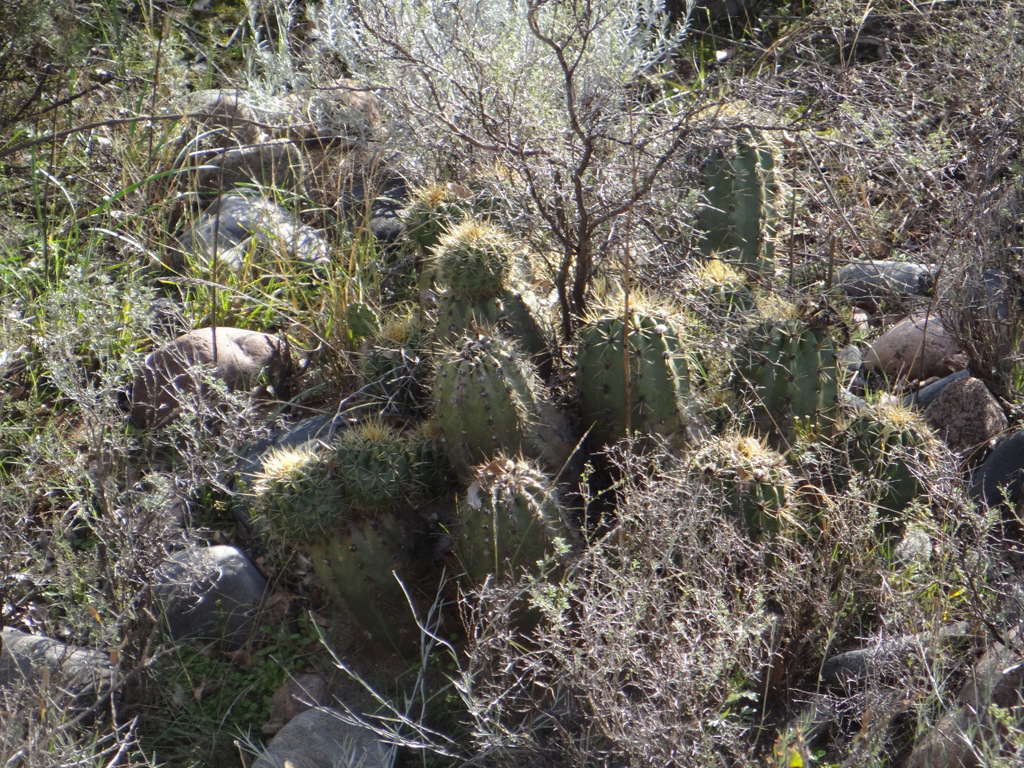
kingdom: Plantae
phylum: Tracheophyta
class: Magnoliopsida
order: Caryophyllales
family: Cactaceae
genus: Soehrensia
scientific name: Soehrensia candicans
